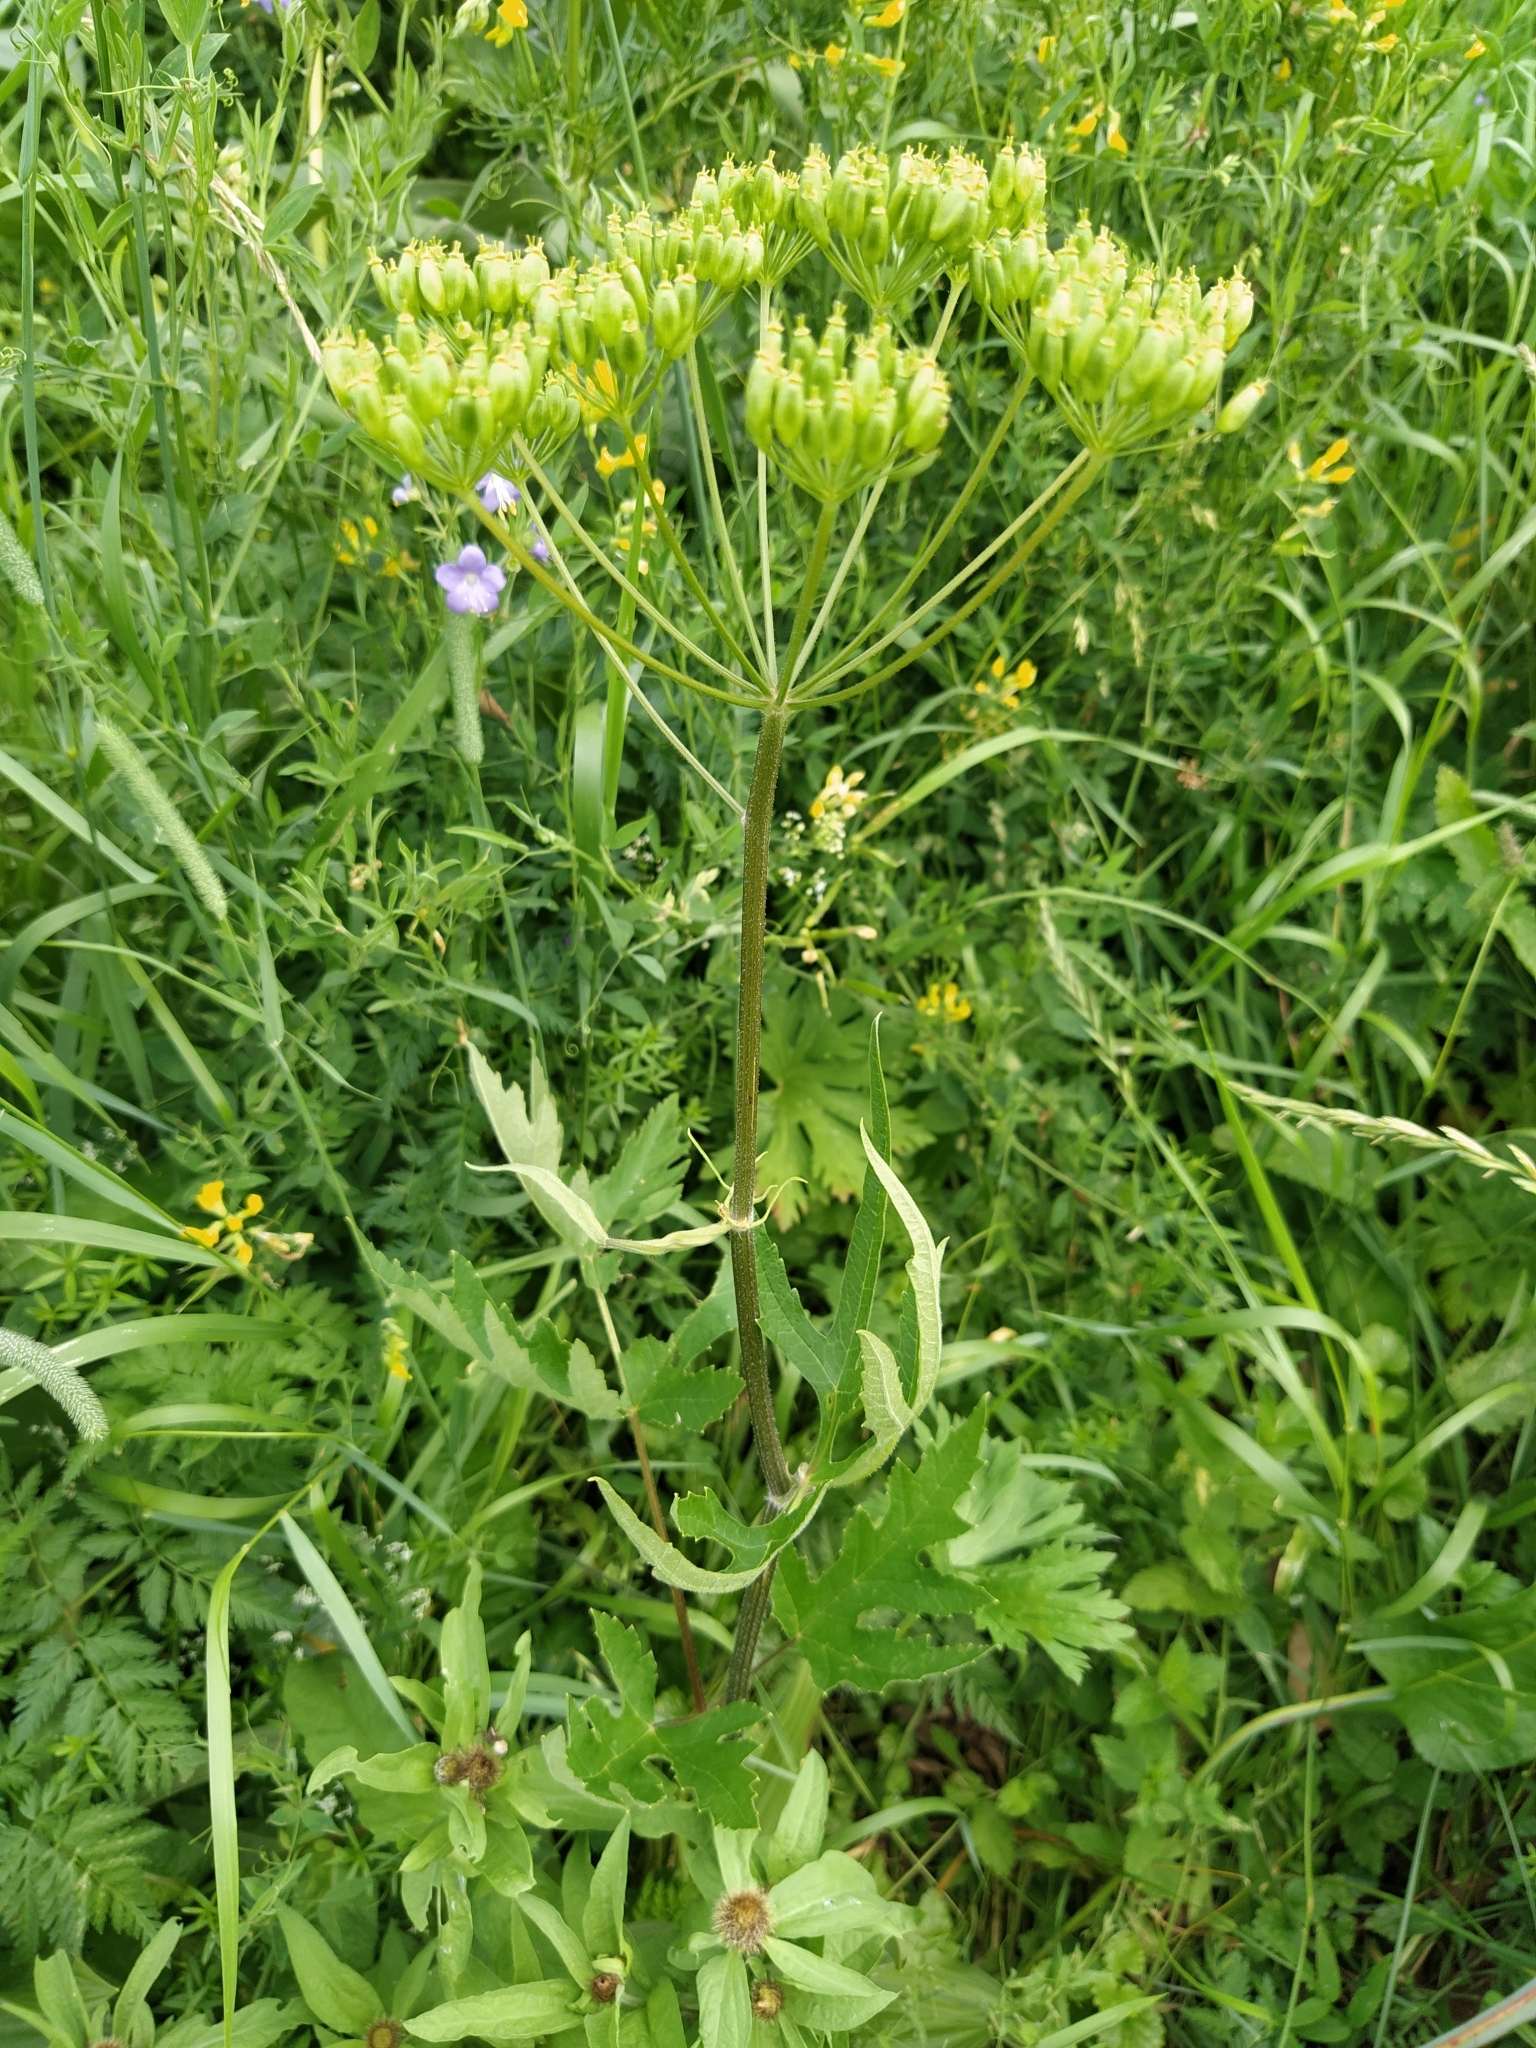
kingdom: Plantae
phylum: Tracheophyta
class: Magnoliopsida
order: Apiales
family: Apiaceae
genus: Heracleum
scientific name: Heracleum sphondylium
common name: Hogweed
